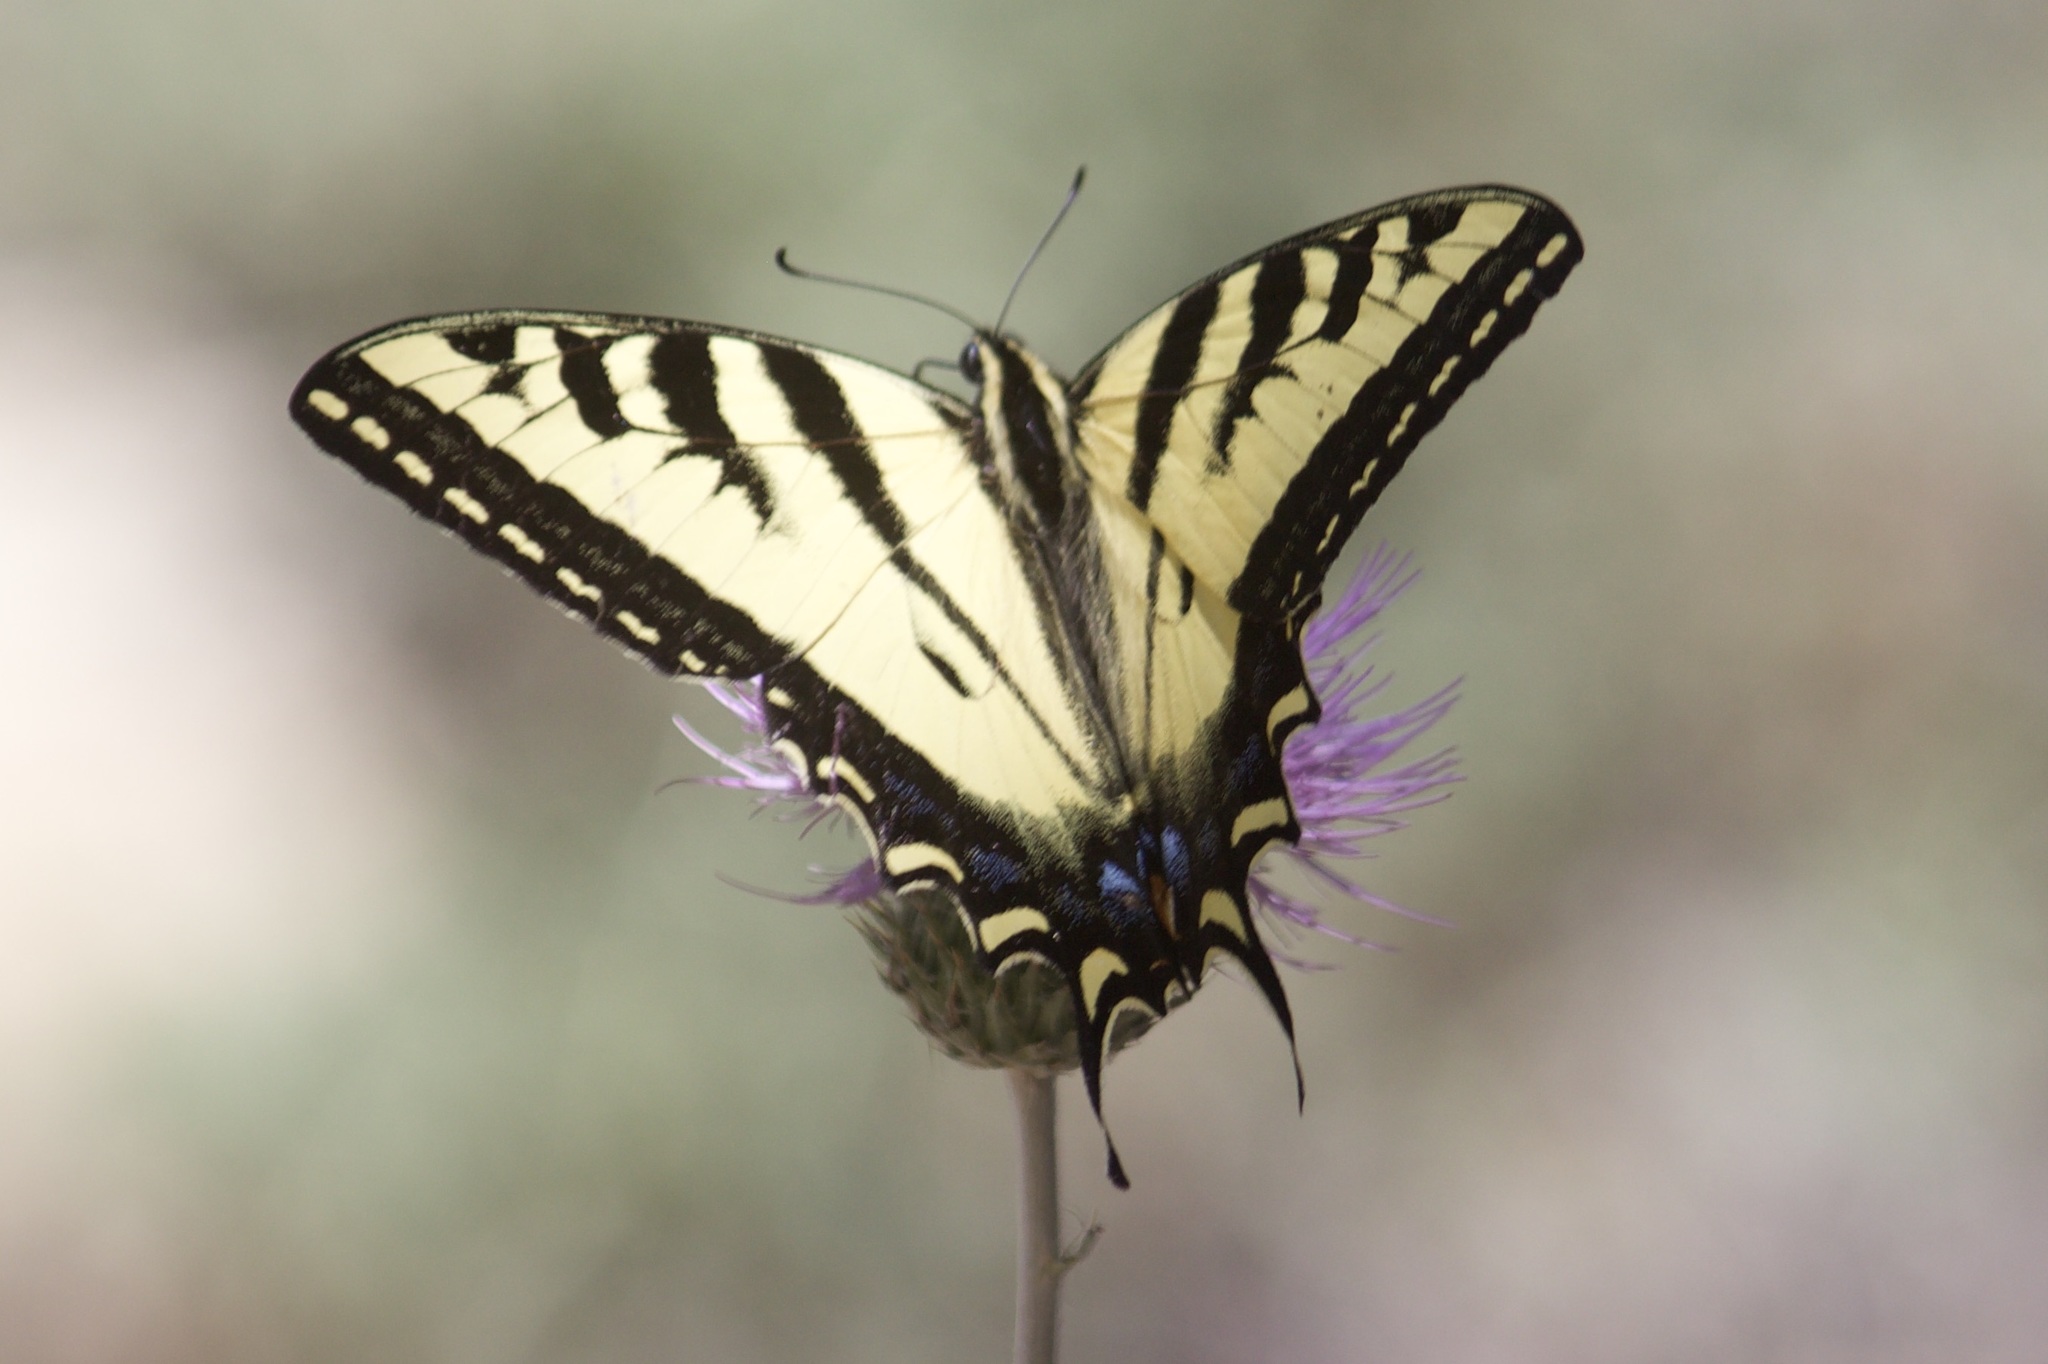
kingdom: Animalia
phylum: Arthropoda
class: Insecta
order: Lepidoptera
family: Papilionidae
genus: Papilio
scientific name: Papilio rutulus
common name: Western tiger swallowtail
